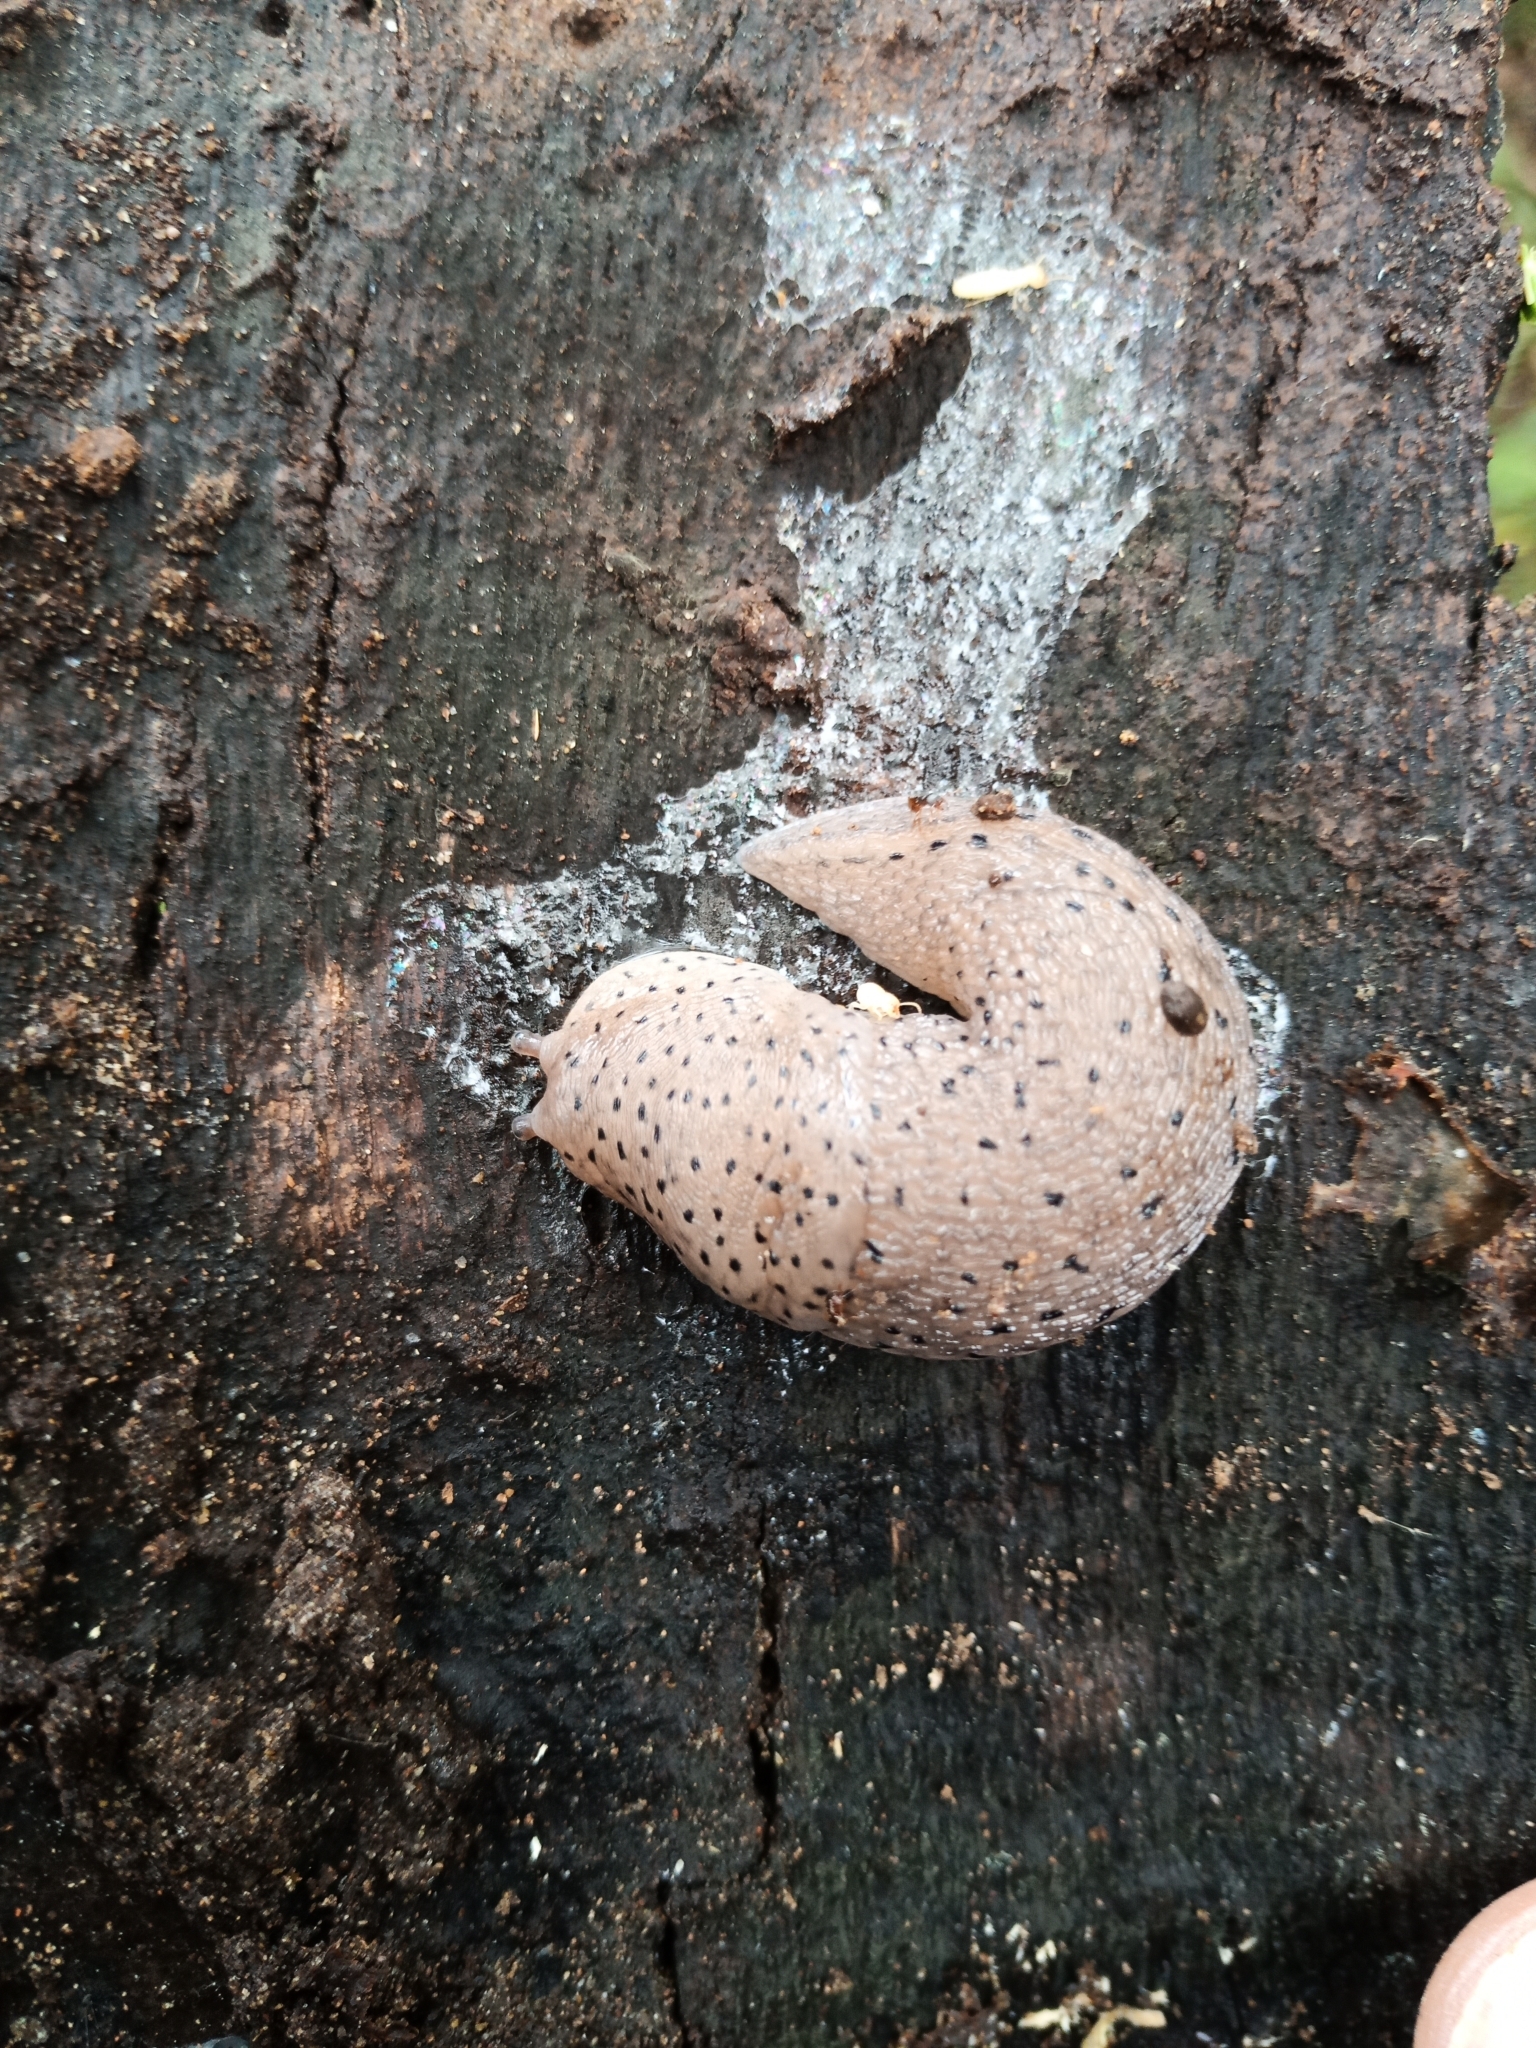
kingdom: Animalia
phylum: Mollusca
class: Gastropoda
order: Stylommatophora
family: Limacidae
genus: Limax
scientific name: Limax conemenosi
